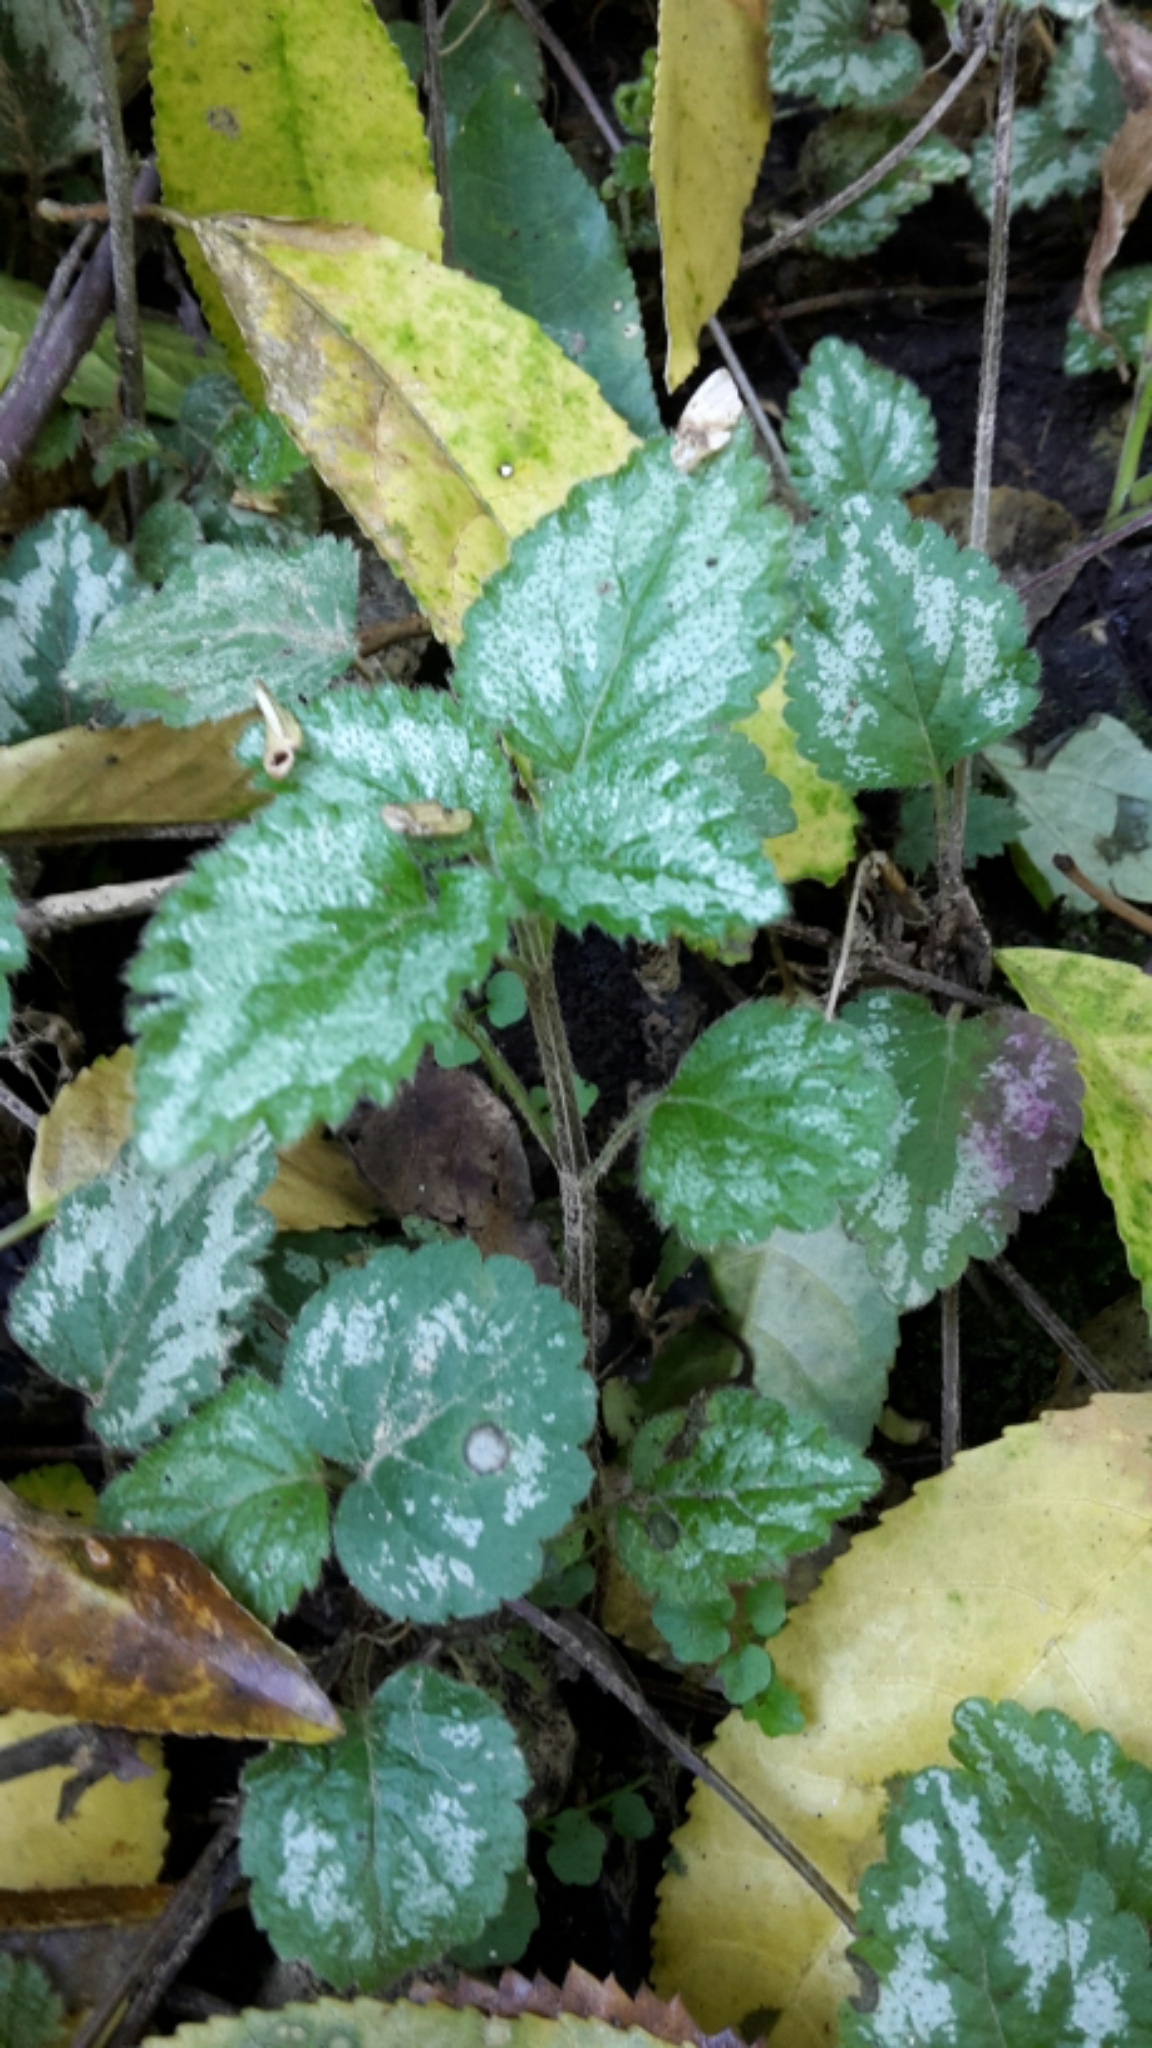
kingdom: Plantae
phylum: Tracheophyta
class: Magnoliopsida
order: Lamiales
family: Lamiaceae
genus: Lamium
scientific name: Lamium galeobdolon
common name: Yellow archangel
